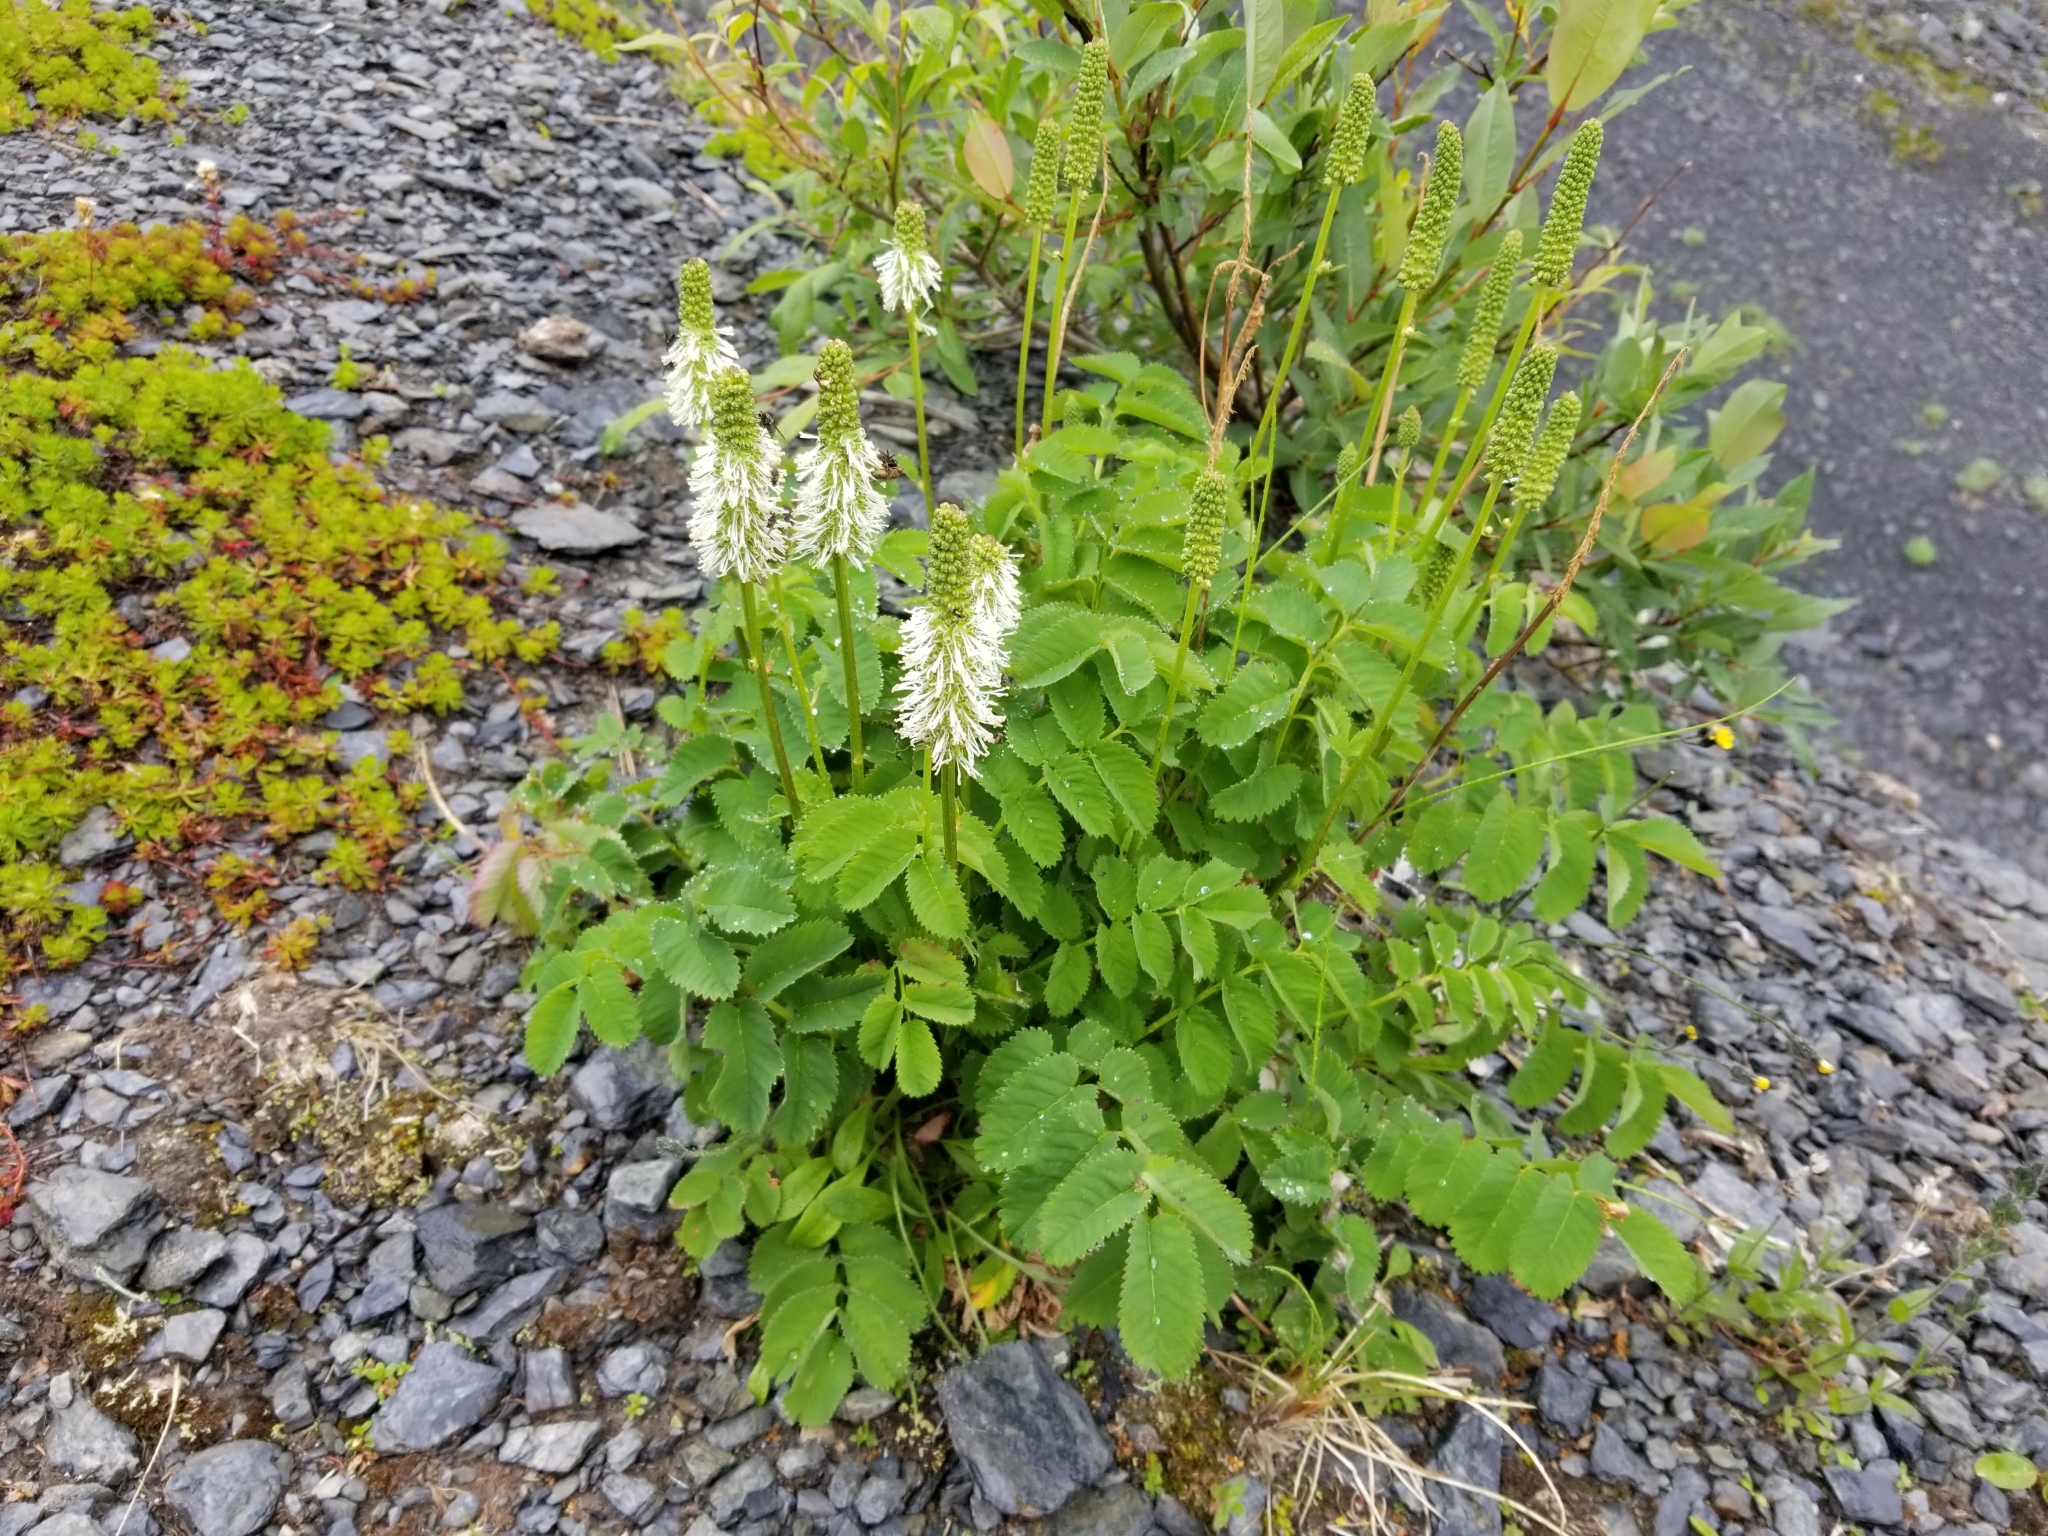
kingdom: Plantae
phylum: Tracheophyta
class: Magnoliopsida
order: Rosales
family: Rosaceae
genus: Sanguisorba
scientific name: Sanguisorba stipulata
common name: Sitka burnet
